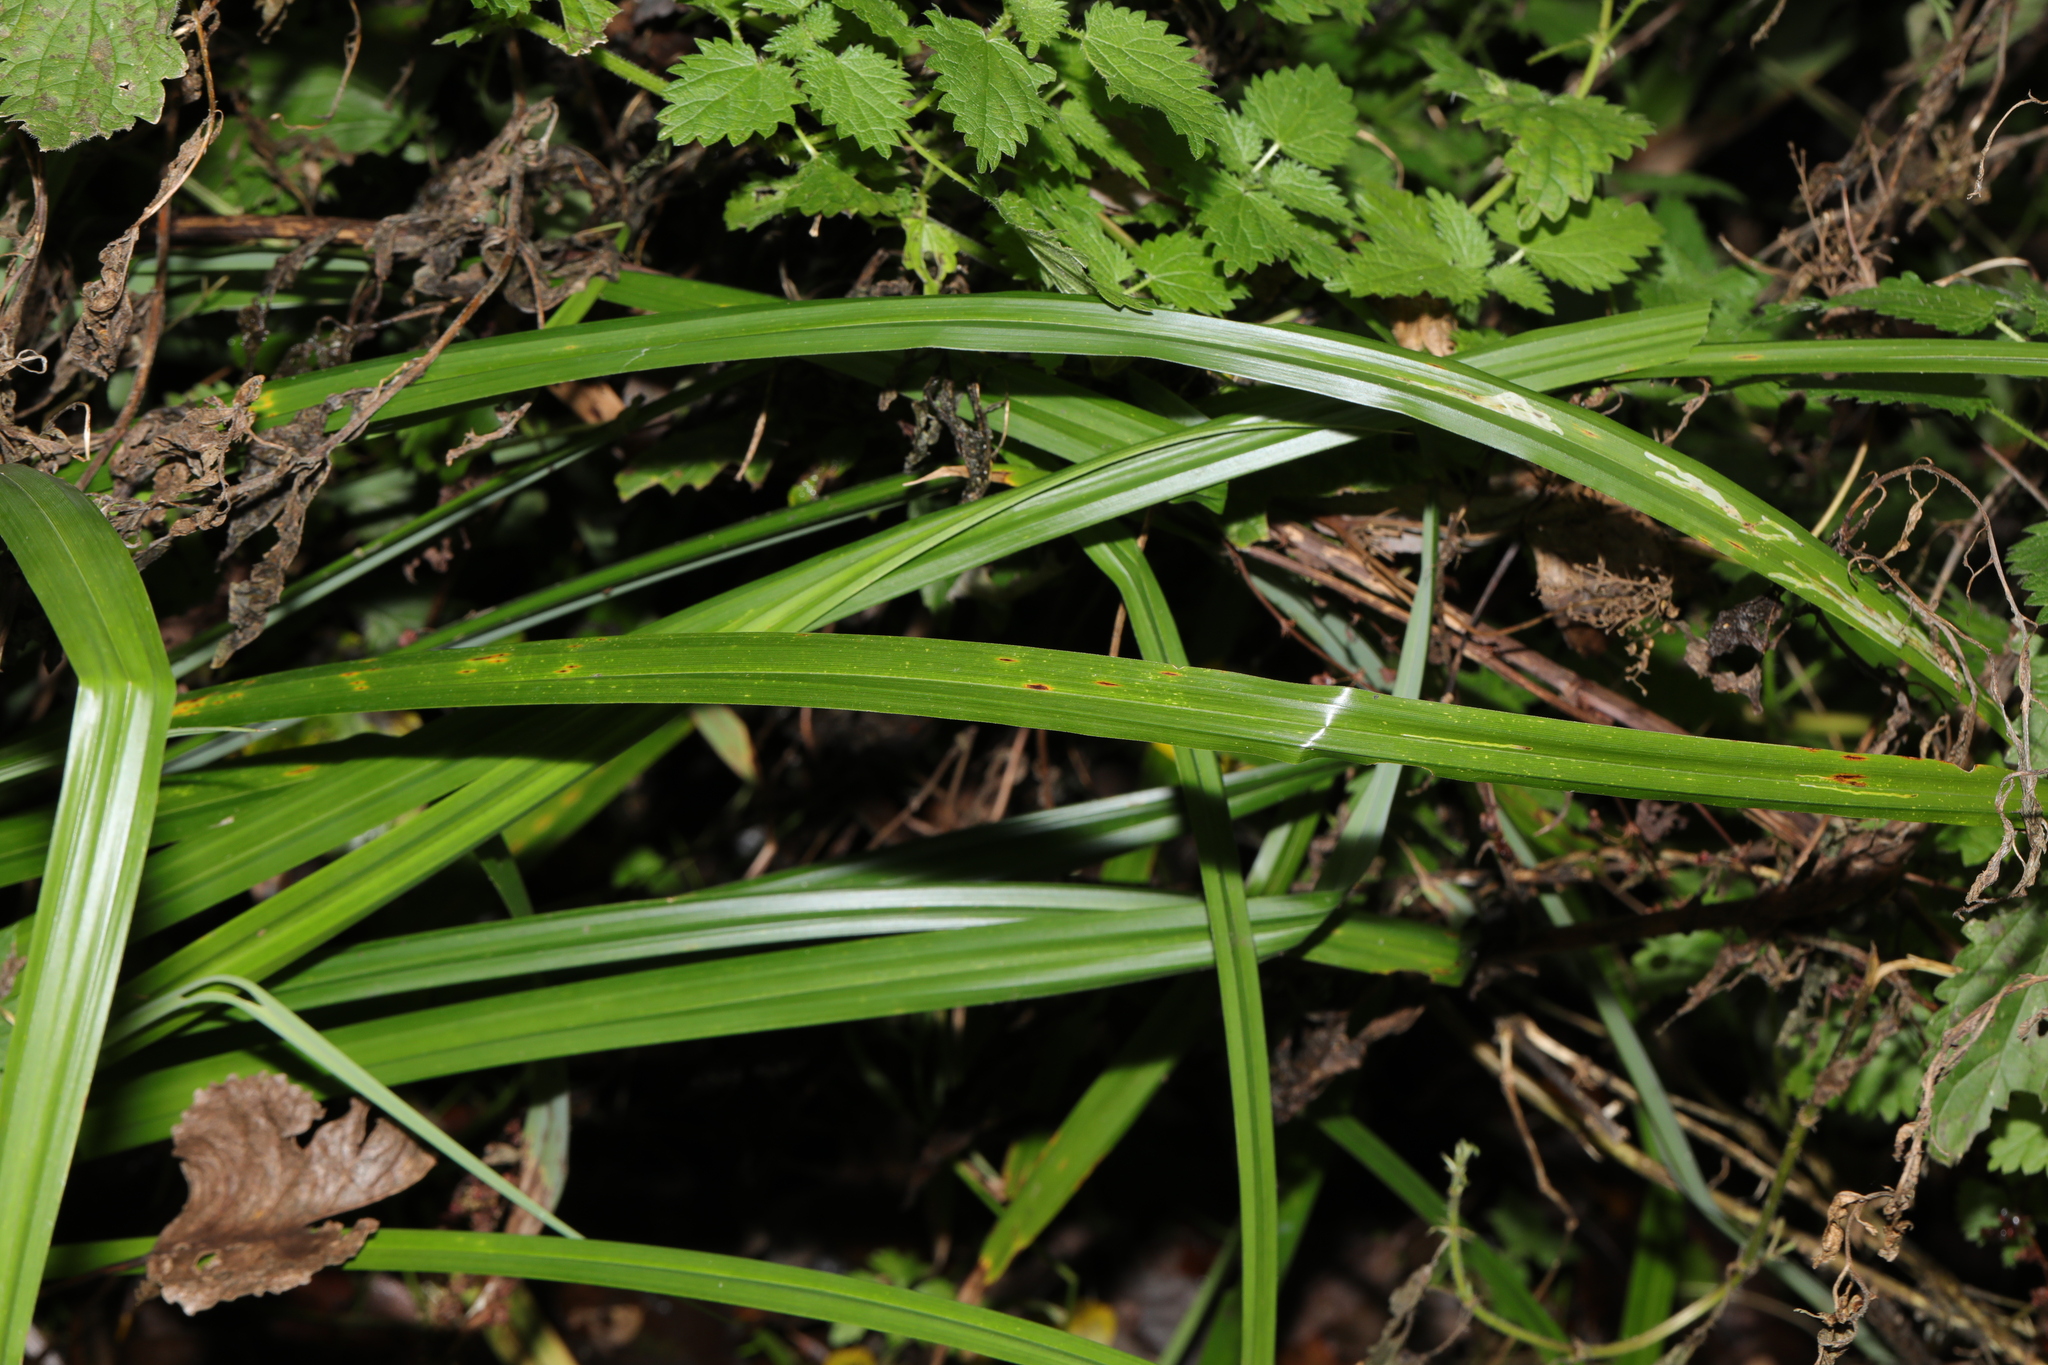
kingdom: Plantae
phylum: Tracheophyta
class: Liliopsida
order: Poales
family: Cyperaceae
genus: Carex
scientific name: Carex pendula
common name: Pendulous sedge
